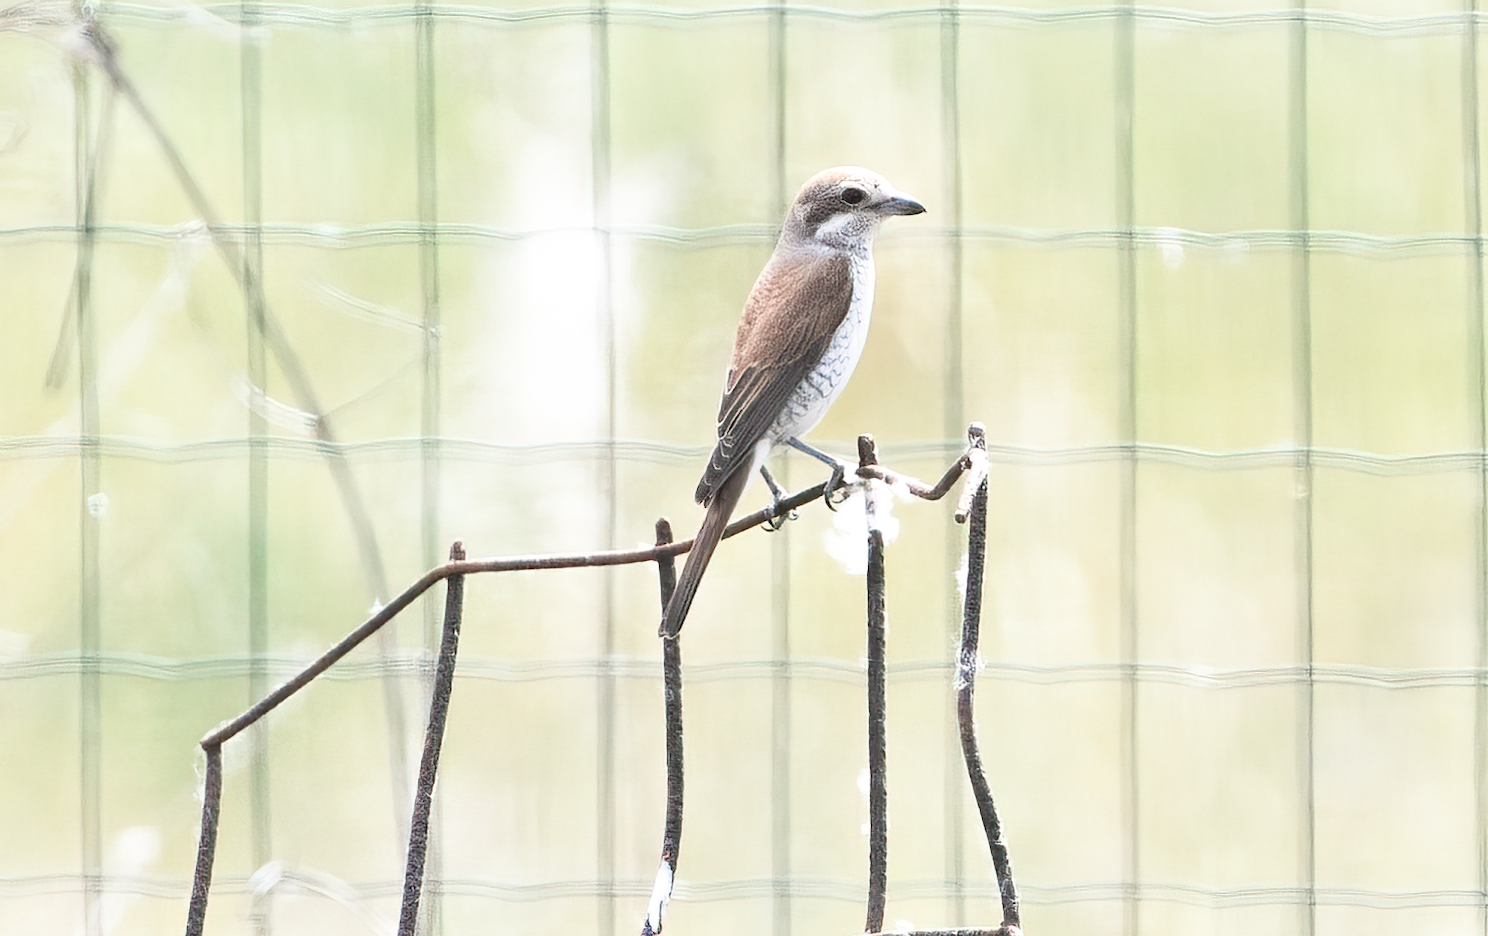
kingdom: Animalia
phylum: Chordata
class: Aves
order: Passeriformes
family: Laniidae
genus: Lanius
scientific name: Lanius collurio
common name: Red-backed shrike
